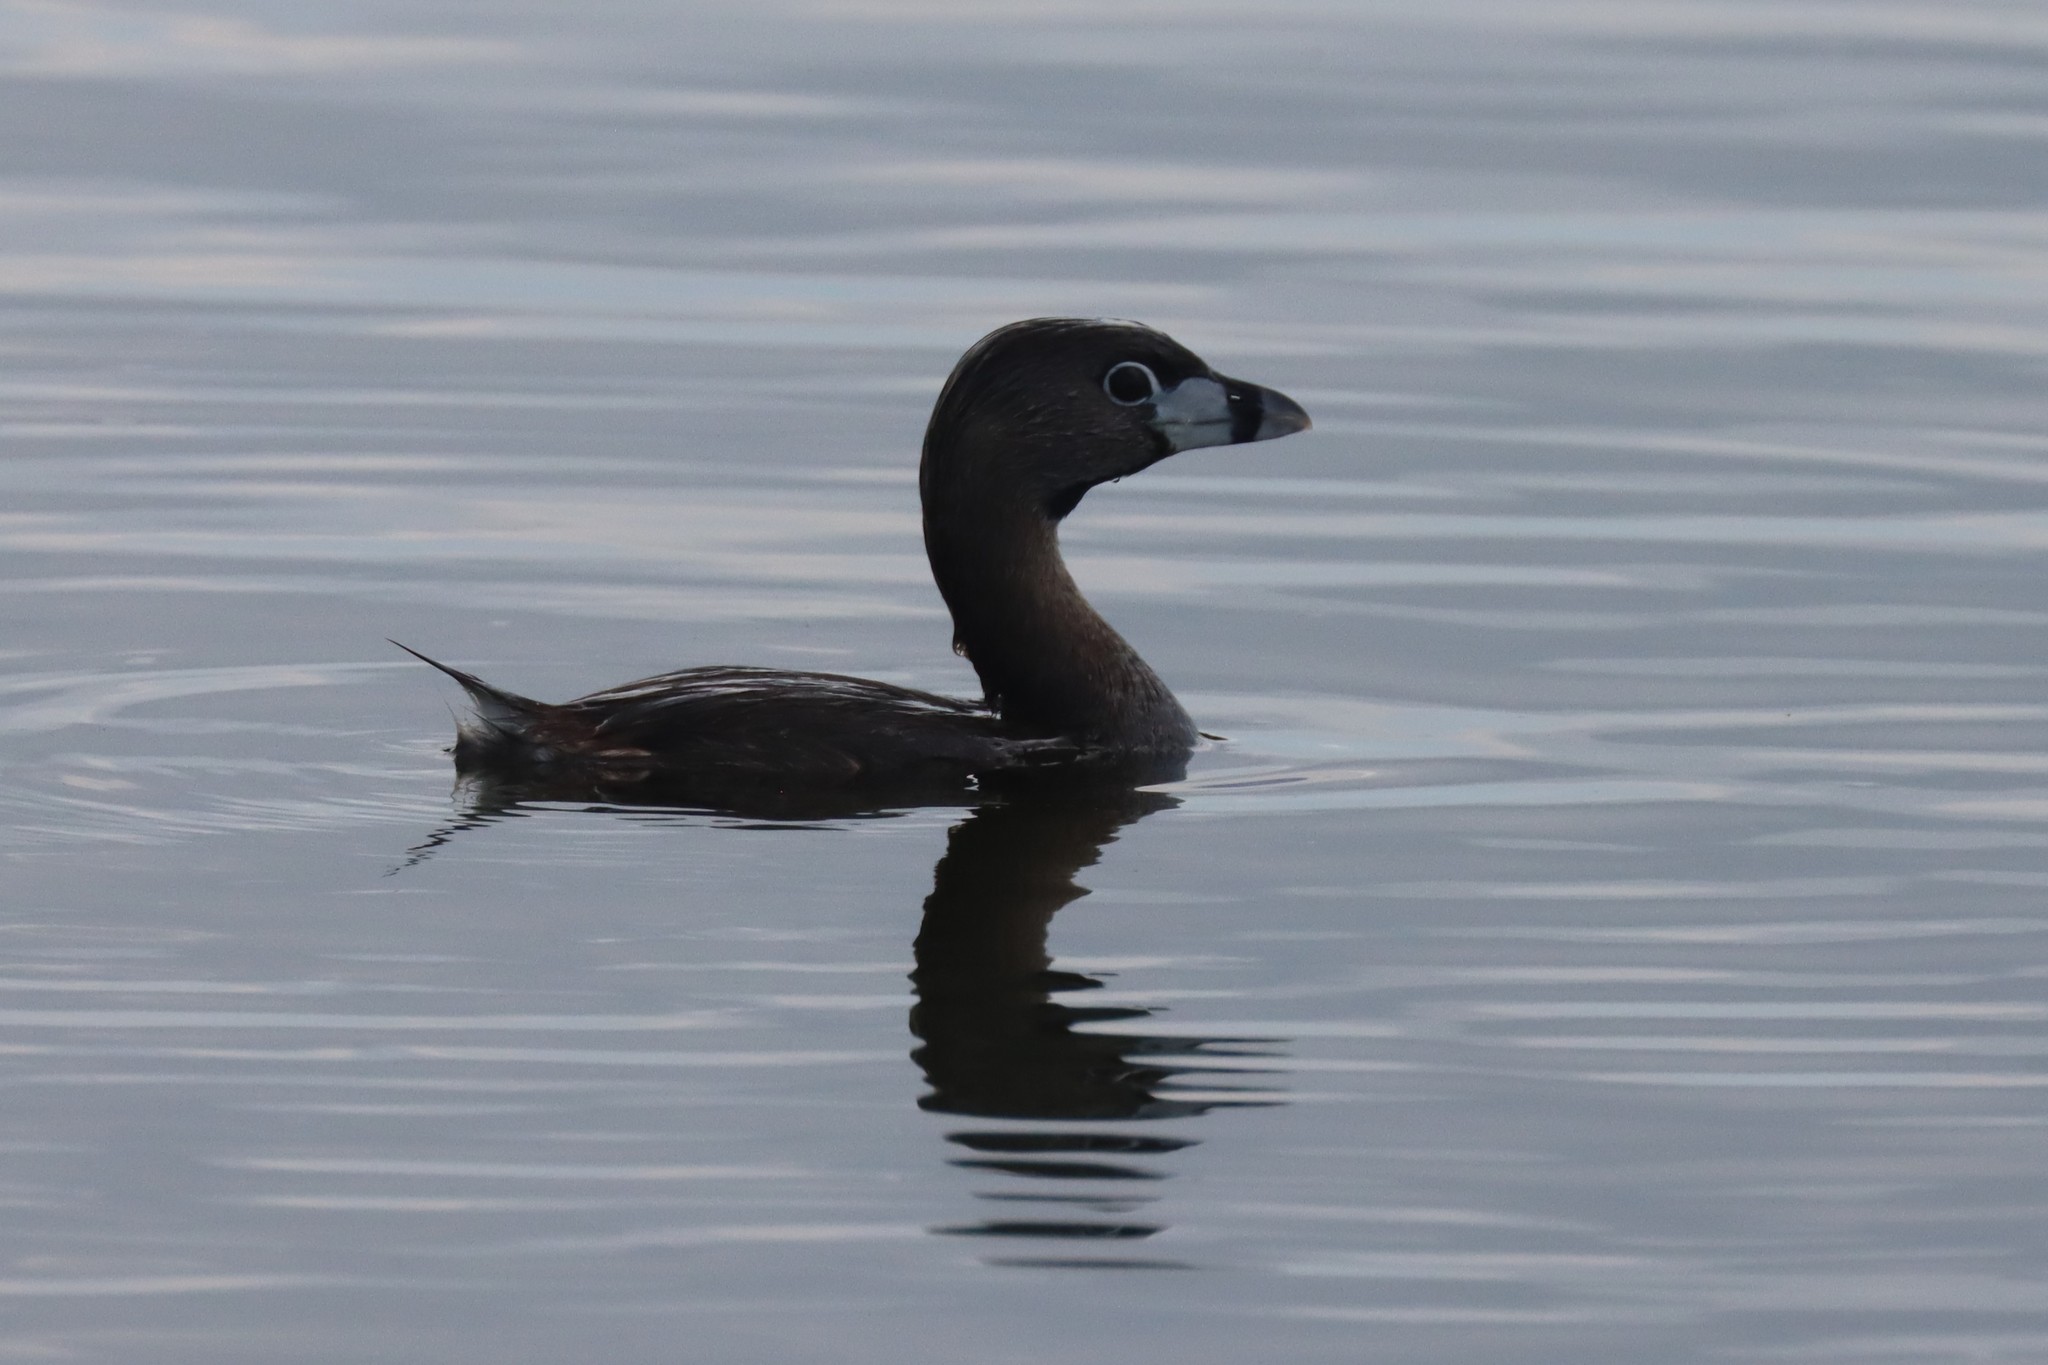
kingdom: Animalia
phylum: Chordata
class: Aves
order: Podicipediformes
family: Podicipedidae
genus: Podilymbus
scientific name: Podilymbus podiceps
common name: Pied-billed grebe
